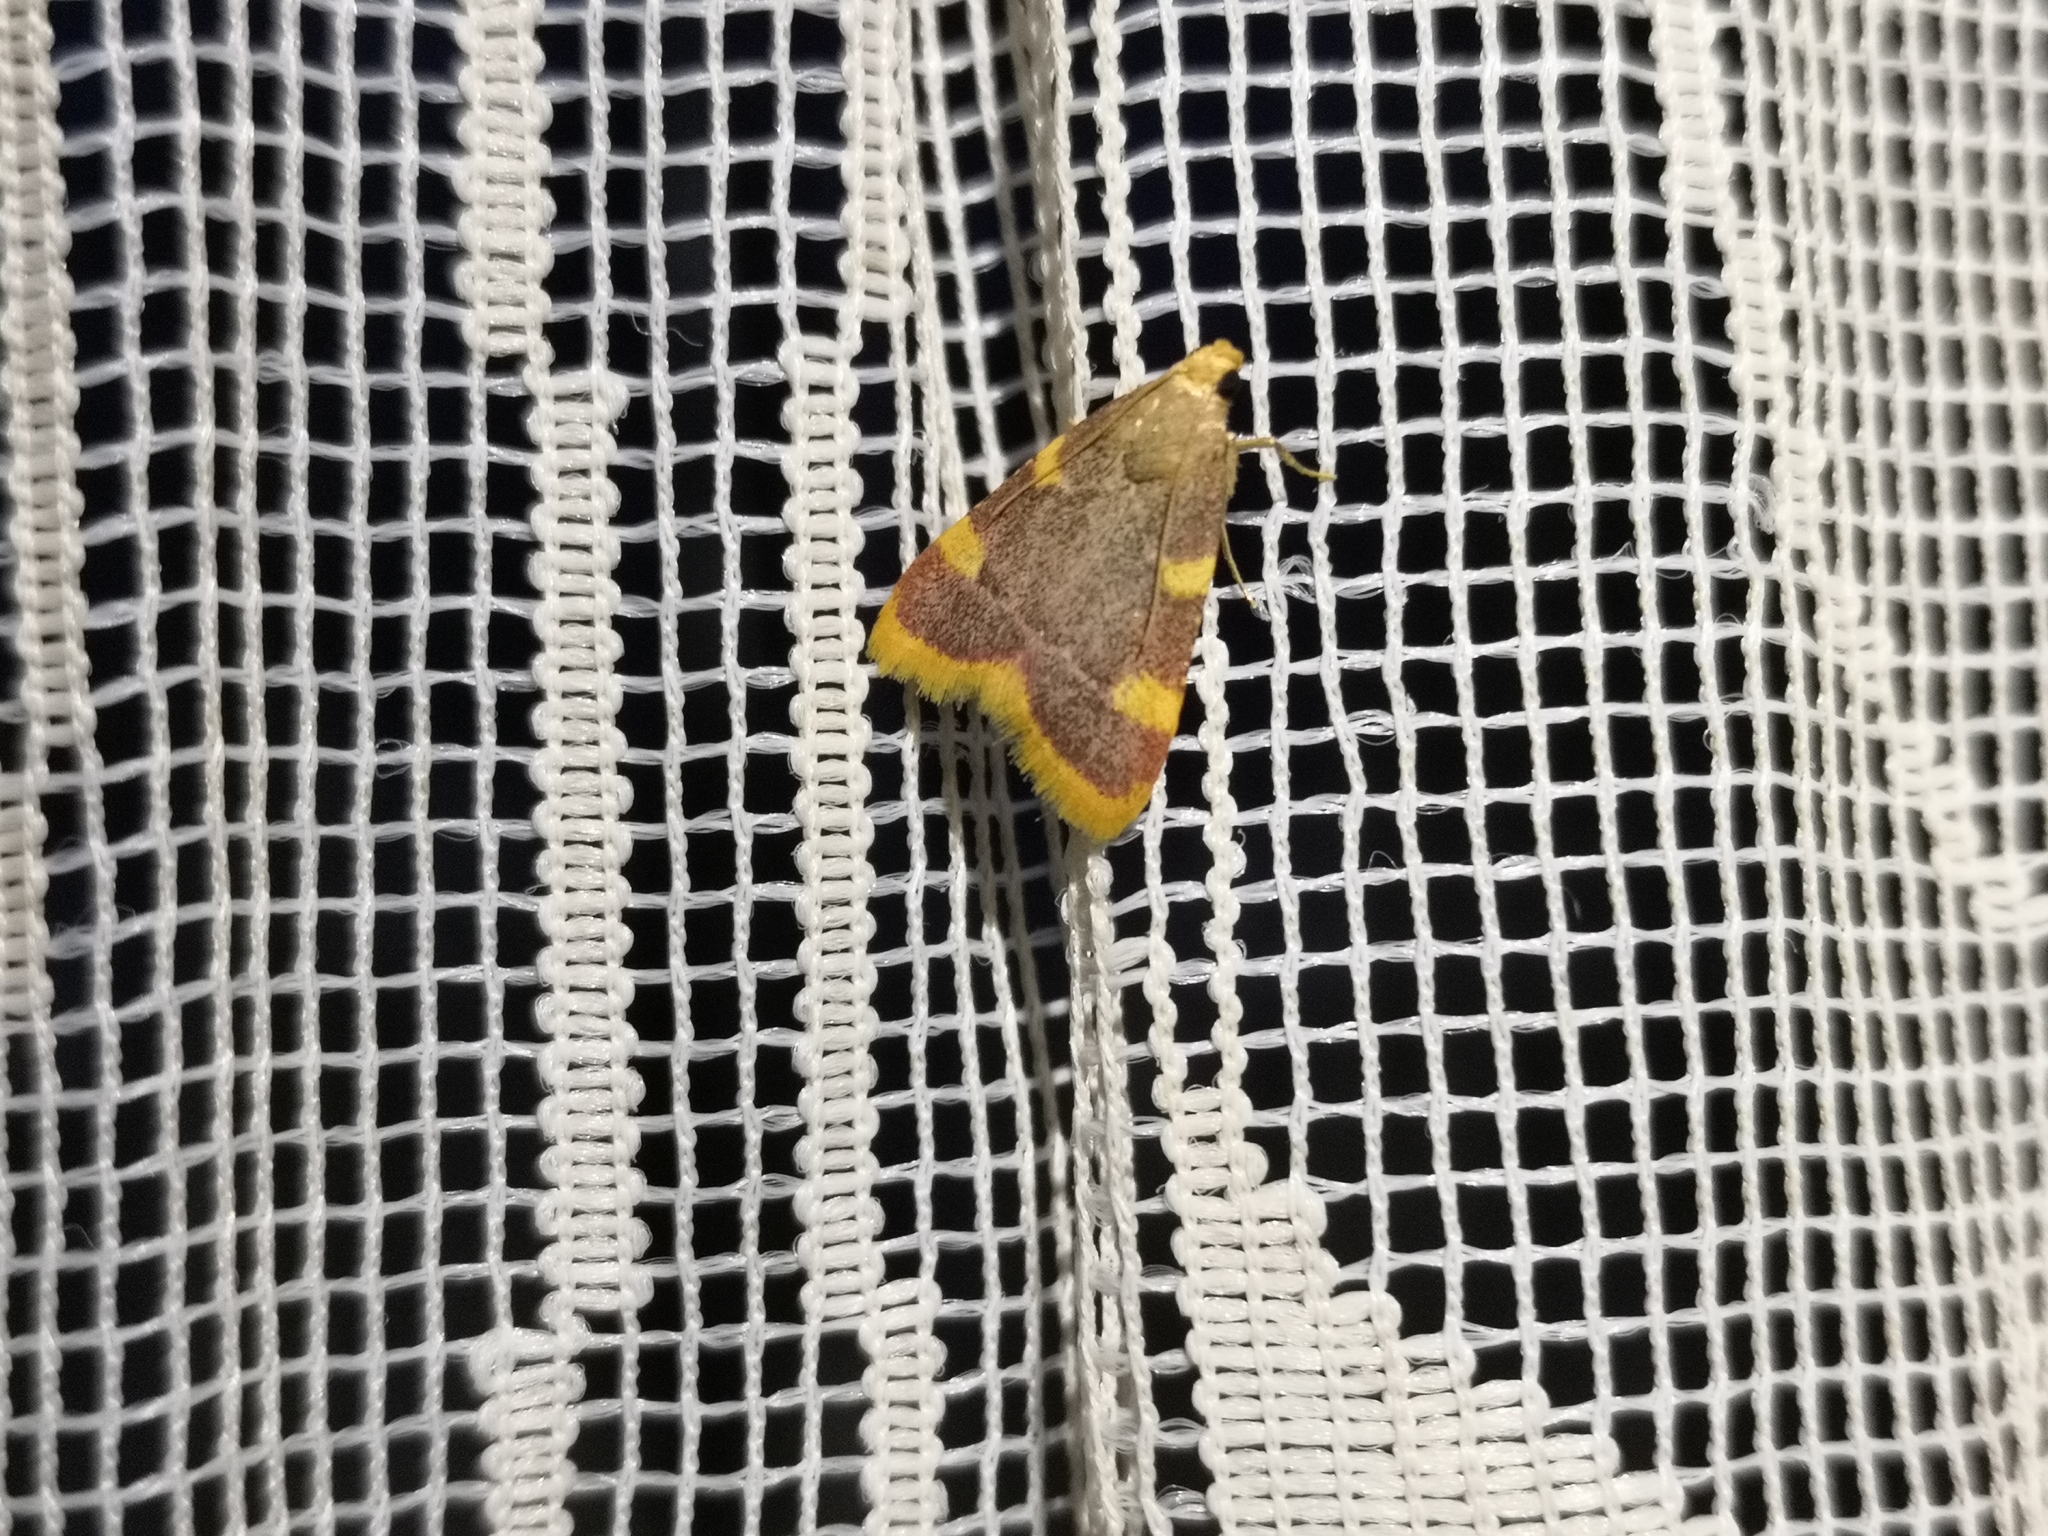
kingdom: Animalia
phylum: Arthropoda
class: Insecta
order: Lepidoptera
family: Pyralidae
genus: Hypsopygia
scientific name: Hypsopygia costalis
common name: Gold triangle
